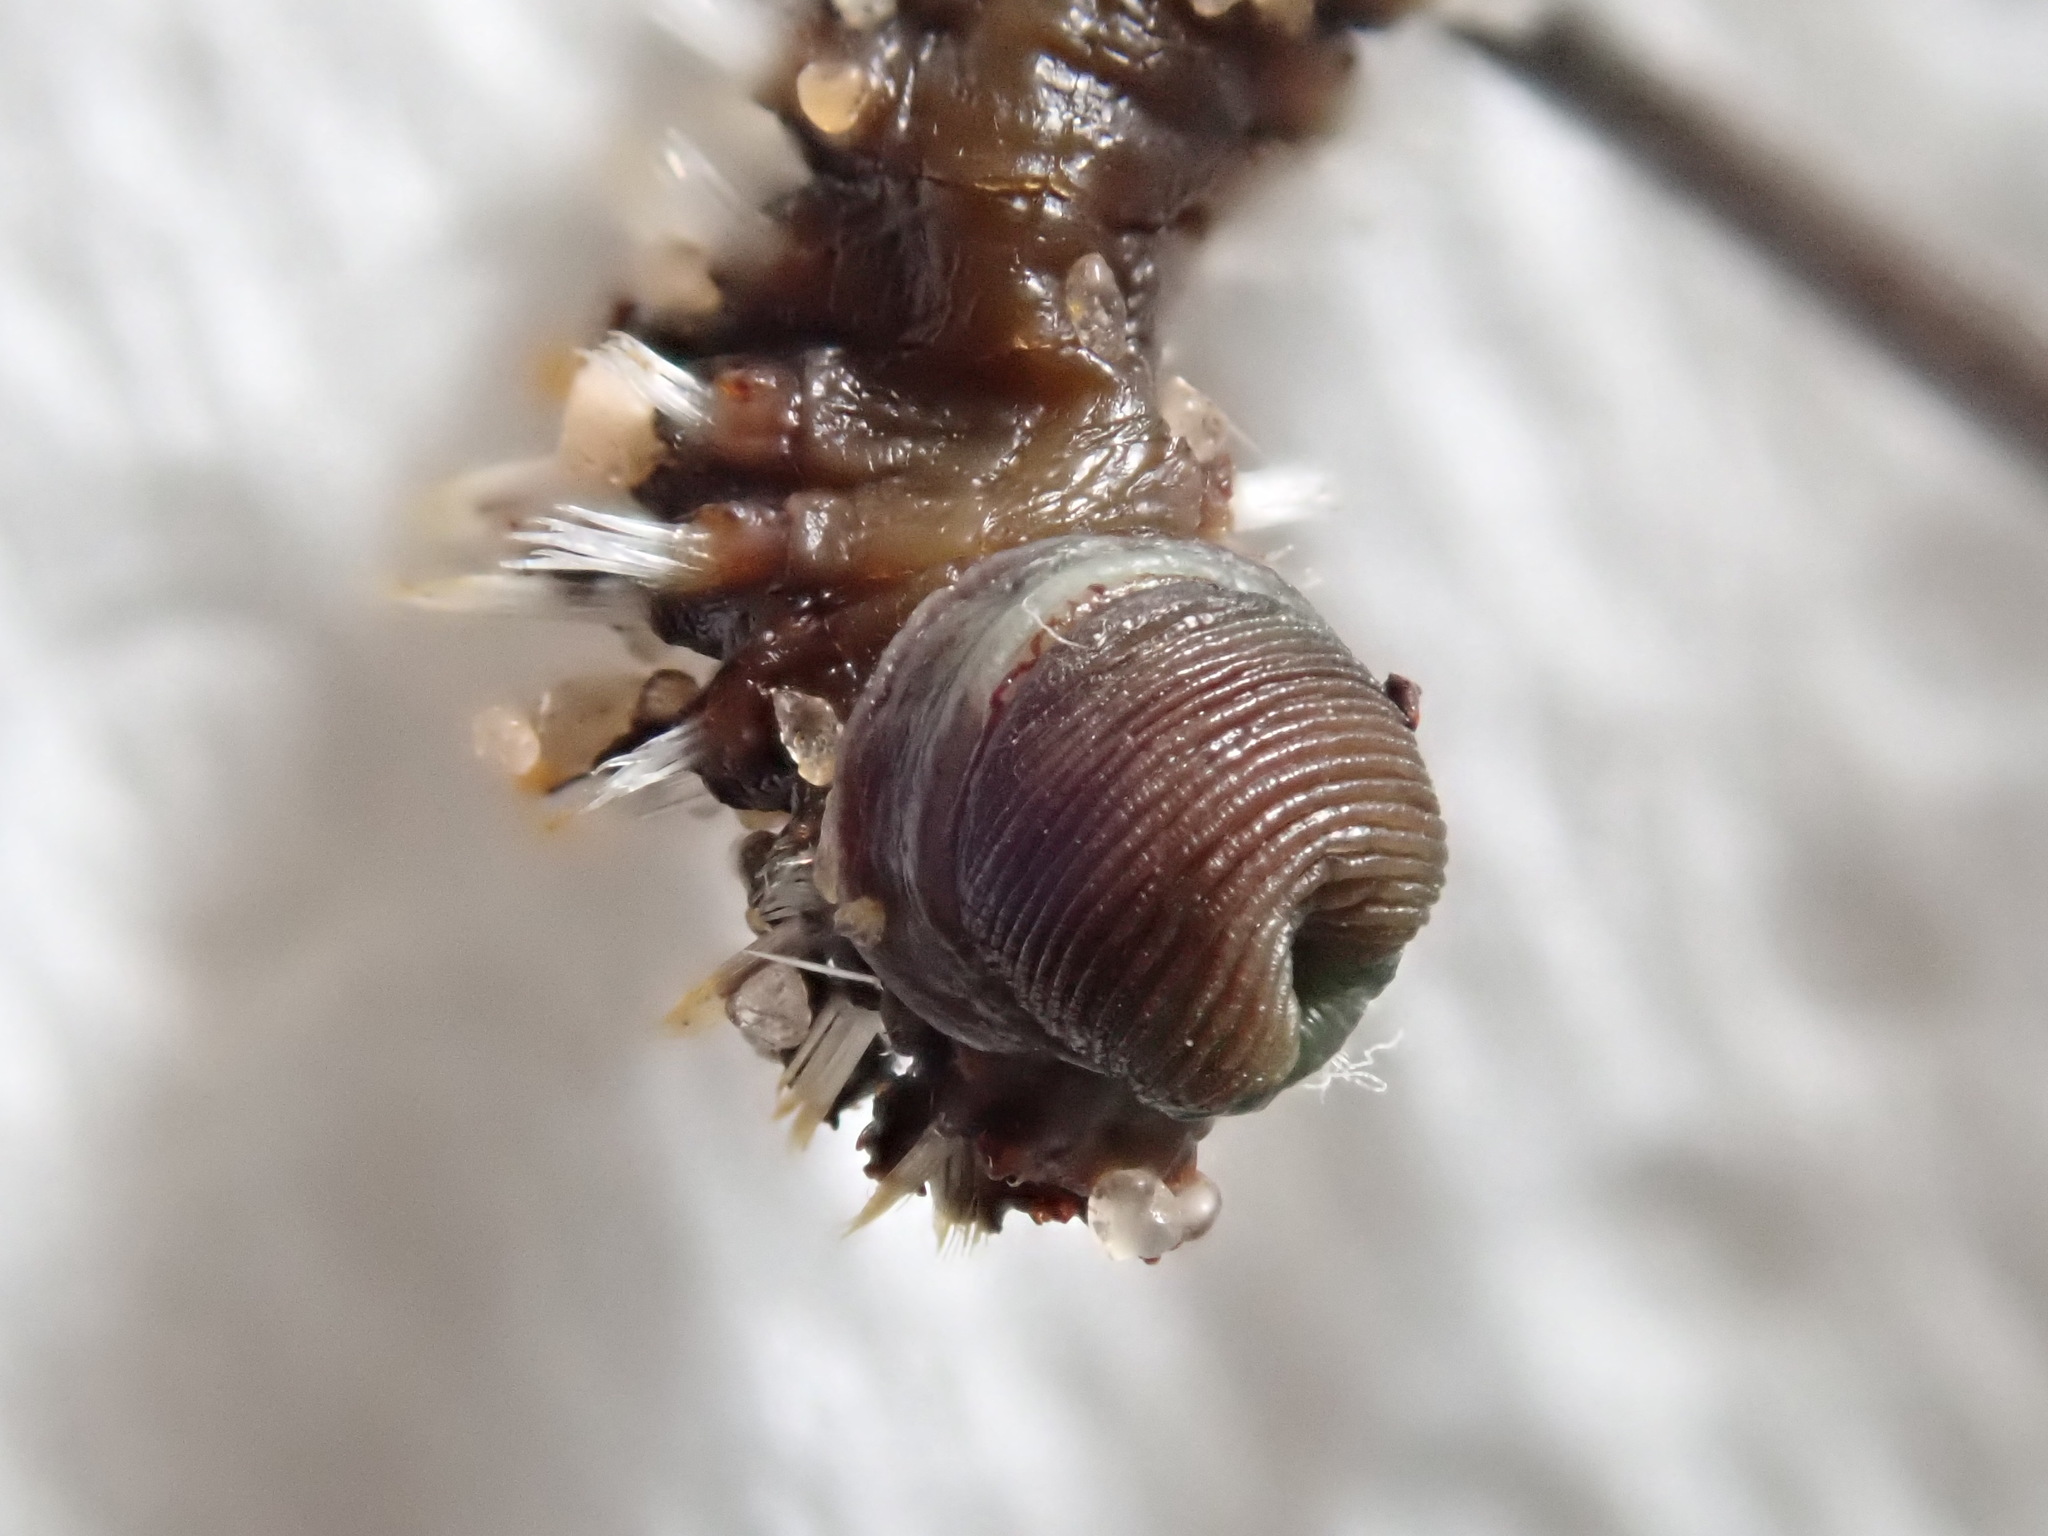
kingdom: Animalia
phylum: Annelida
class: Polychaeta
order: Amphinomida
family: Amphinomidae
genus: Amphinome
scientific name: Amphinome rostrata
